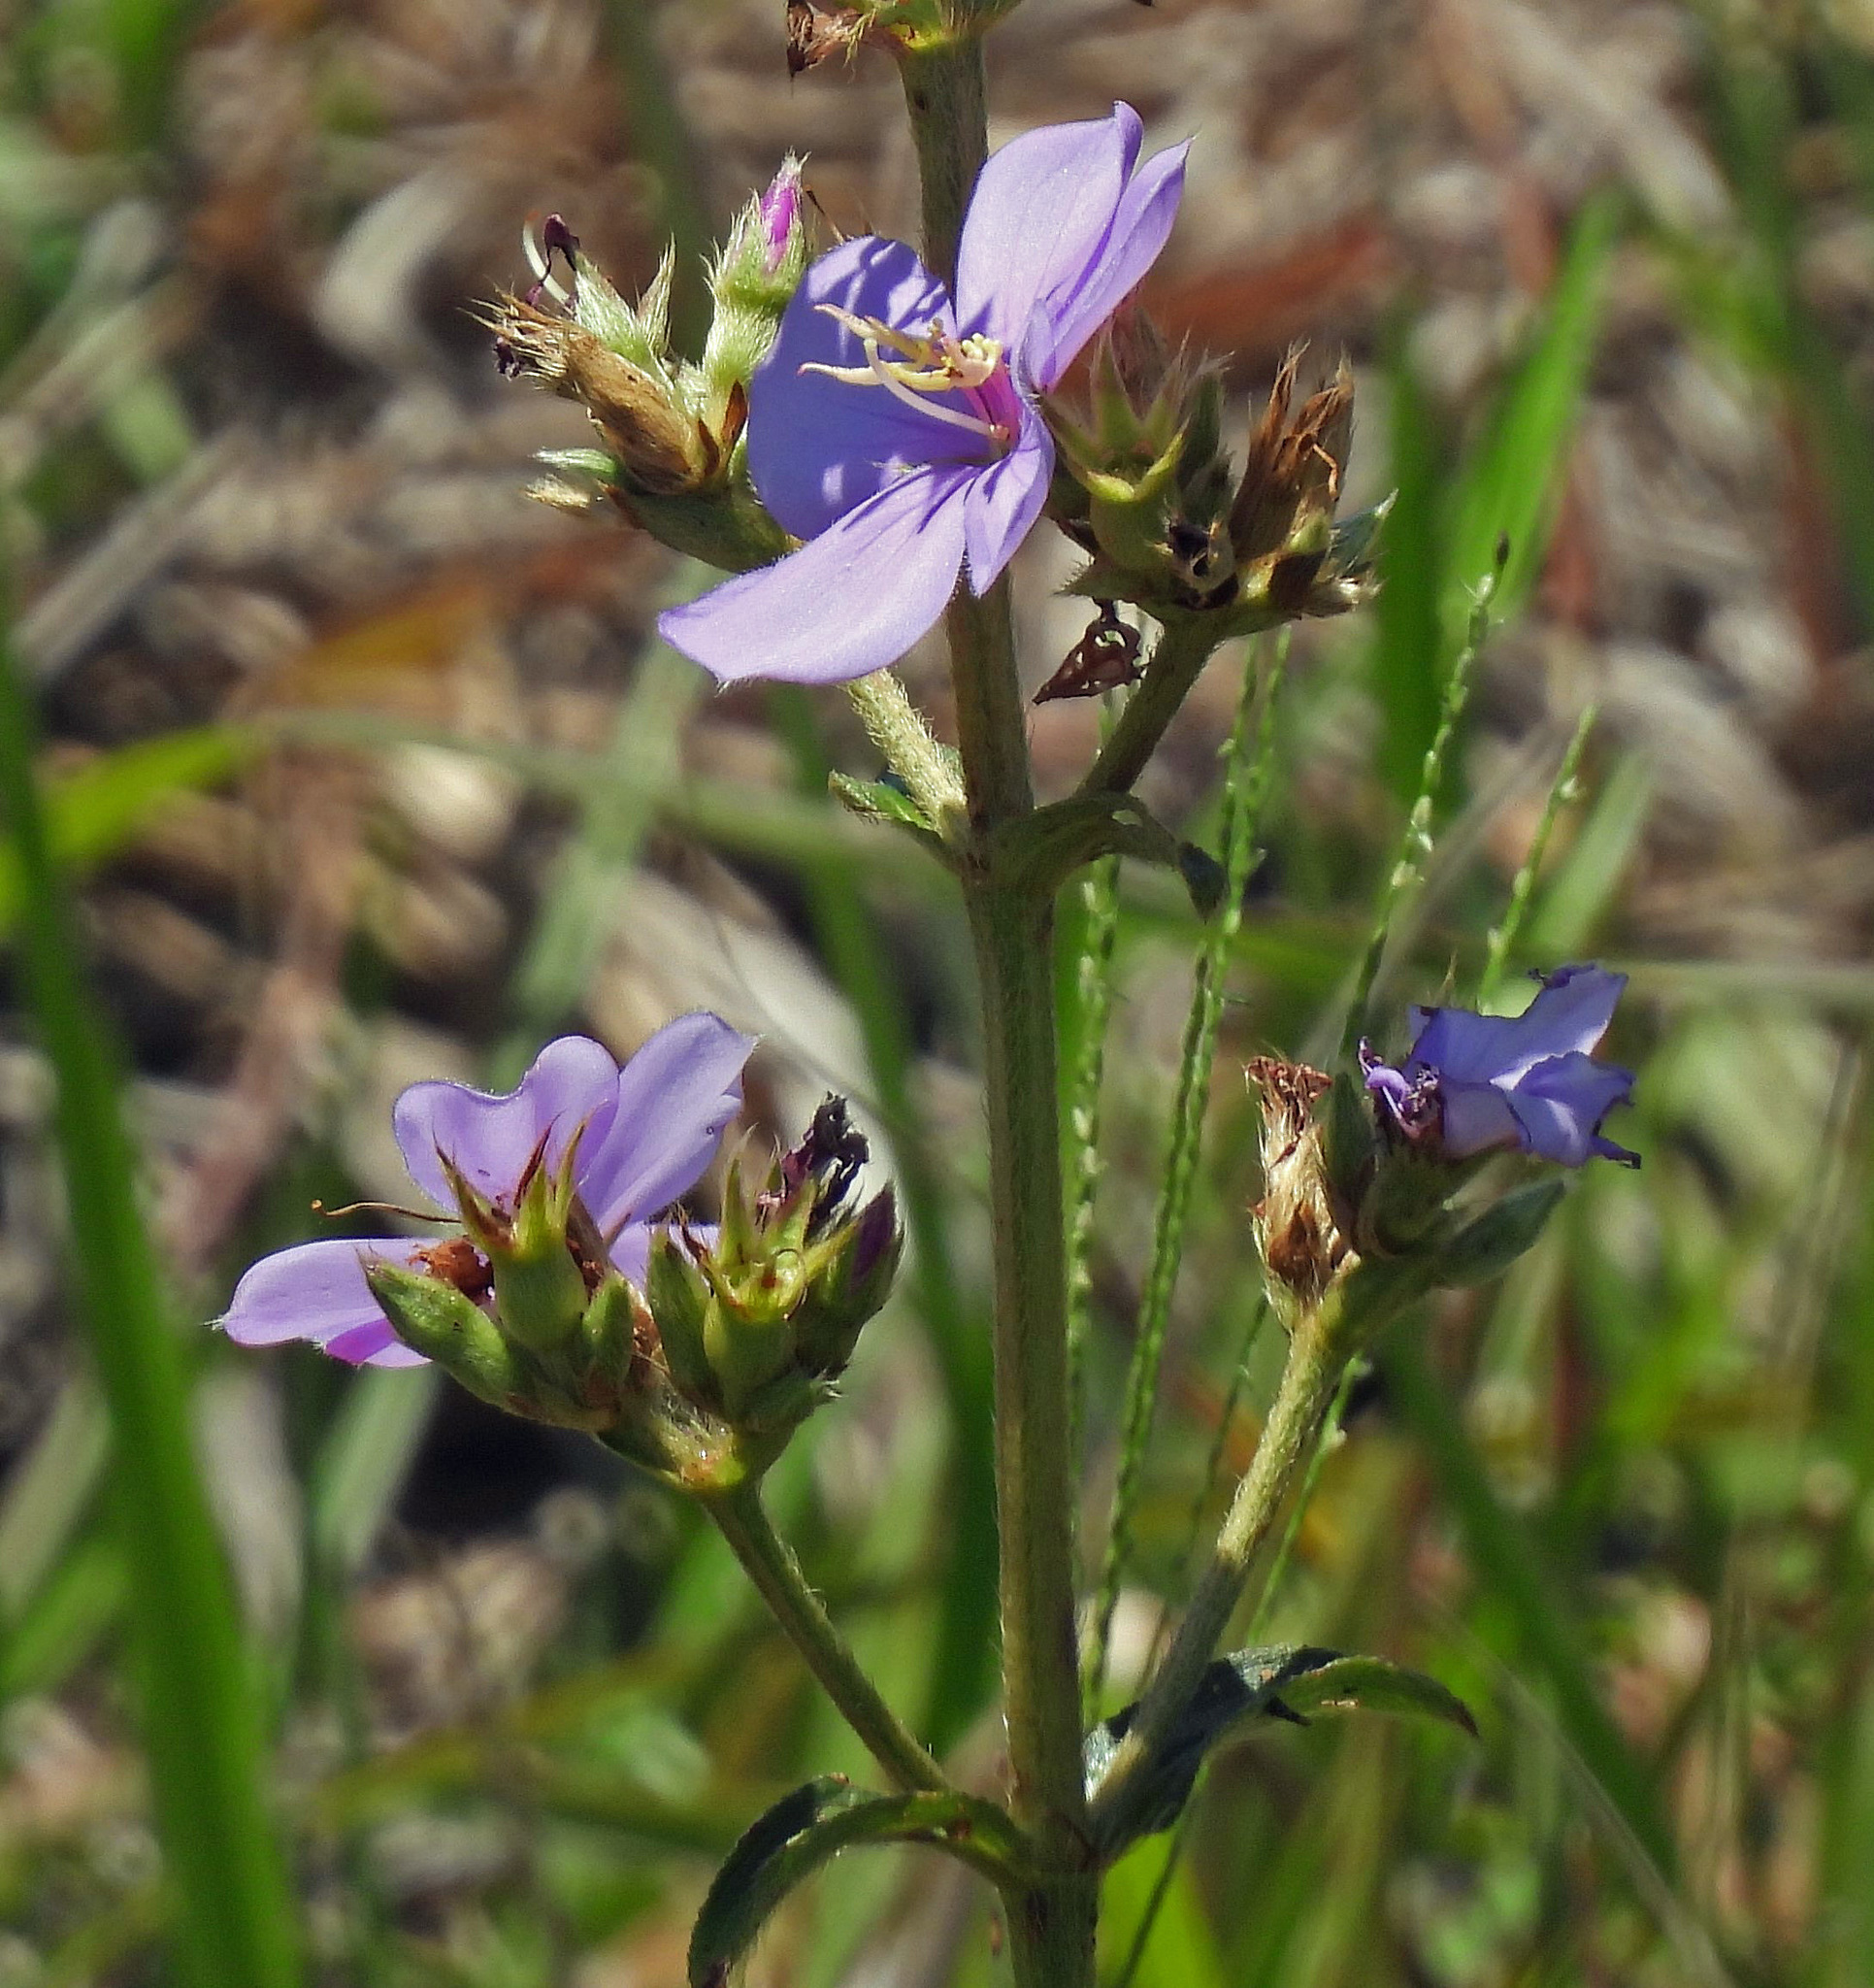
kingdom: Plantae
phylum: Tracheophyta
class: Magnoliopsida
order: Myrtales
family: Melastomataceae
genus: Chaetogastra
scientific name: Chaetogastra gracilis
